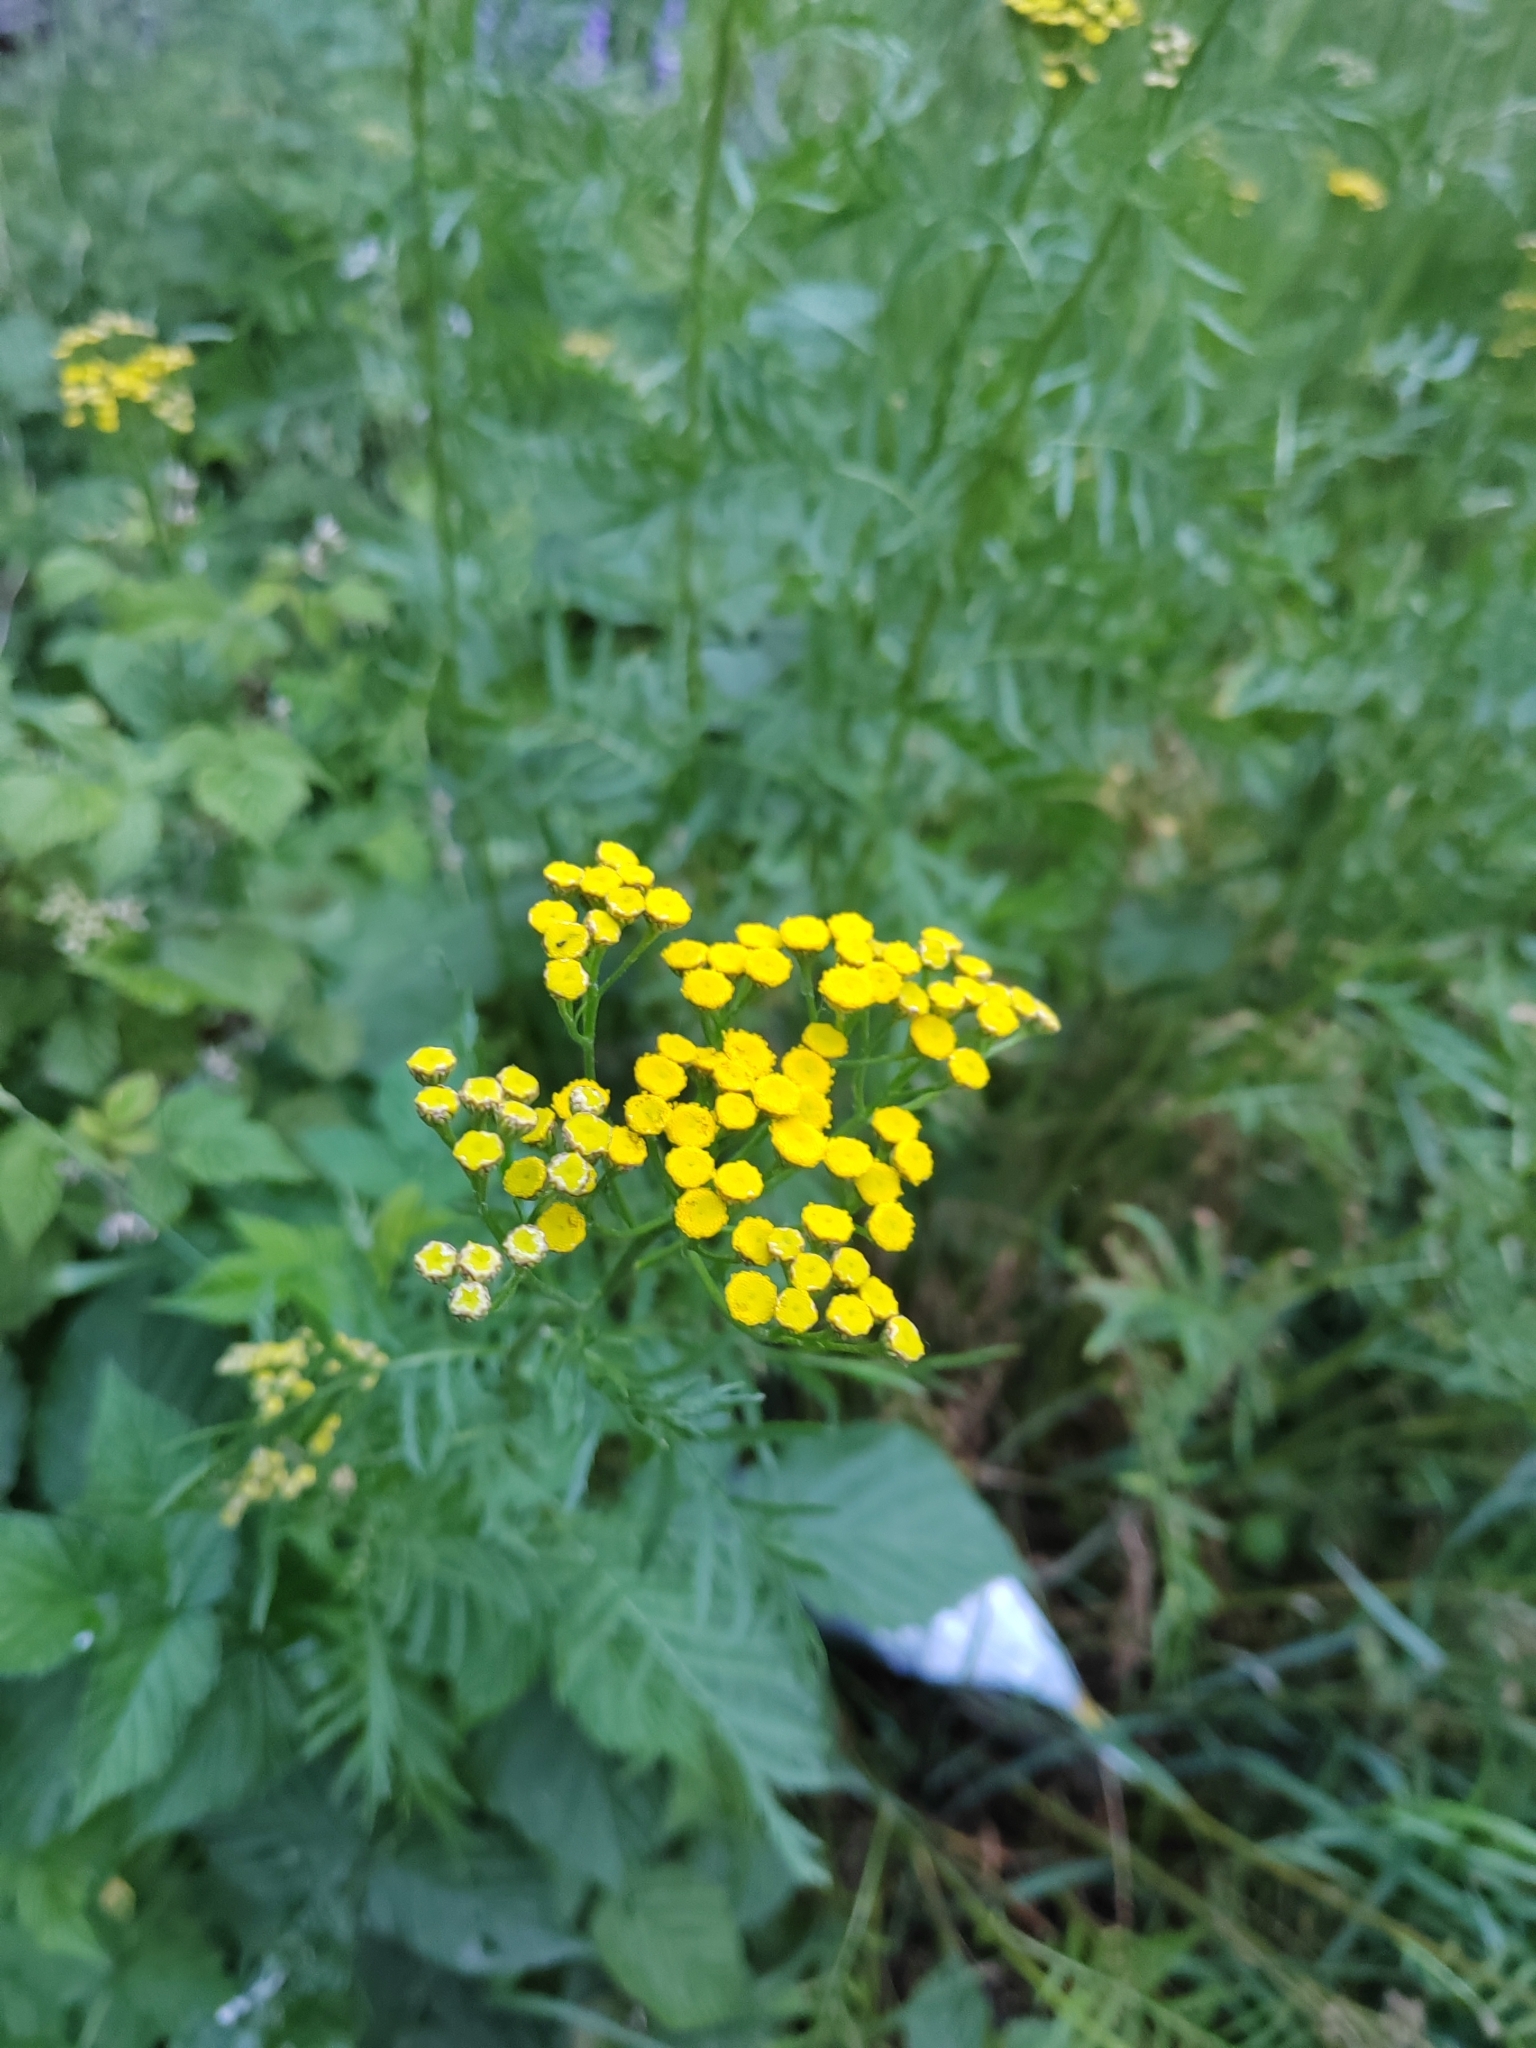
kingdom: Plantae
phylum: Tracheophyta
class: Magnoliopsida
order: Asterales
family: Asteraceae
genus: Tanacetum
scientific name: Tanacetum vulgare
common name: Common tansy
